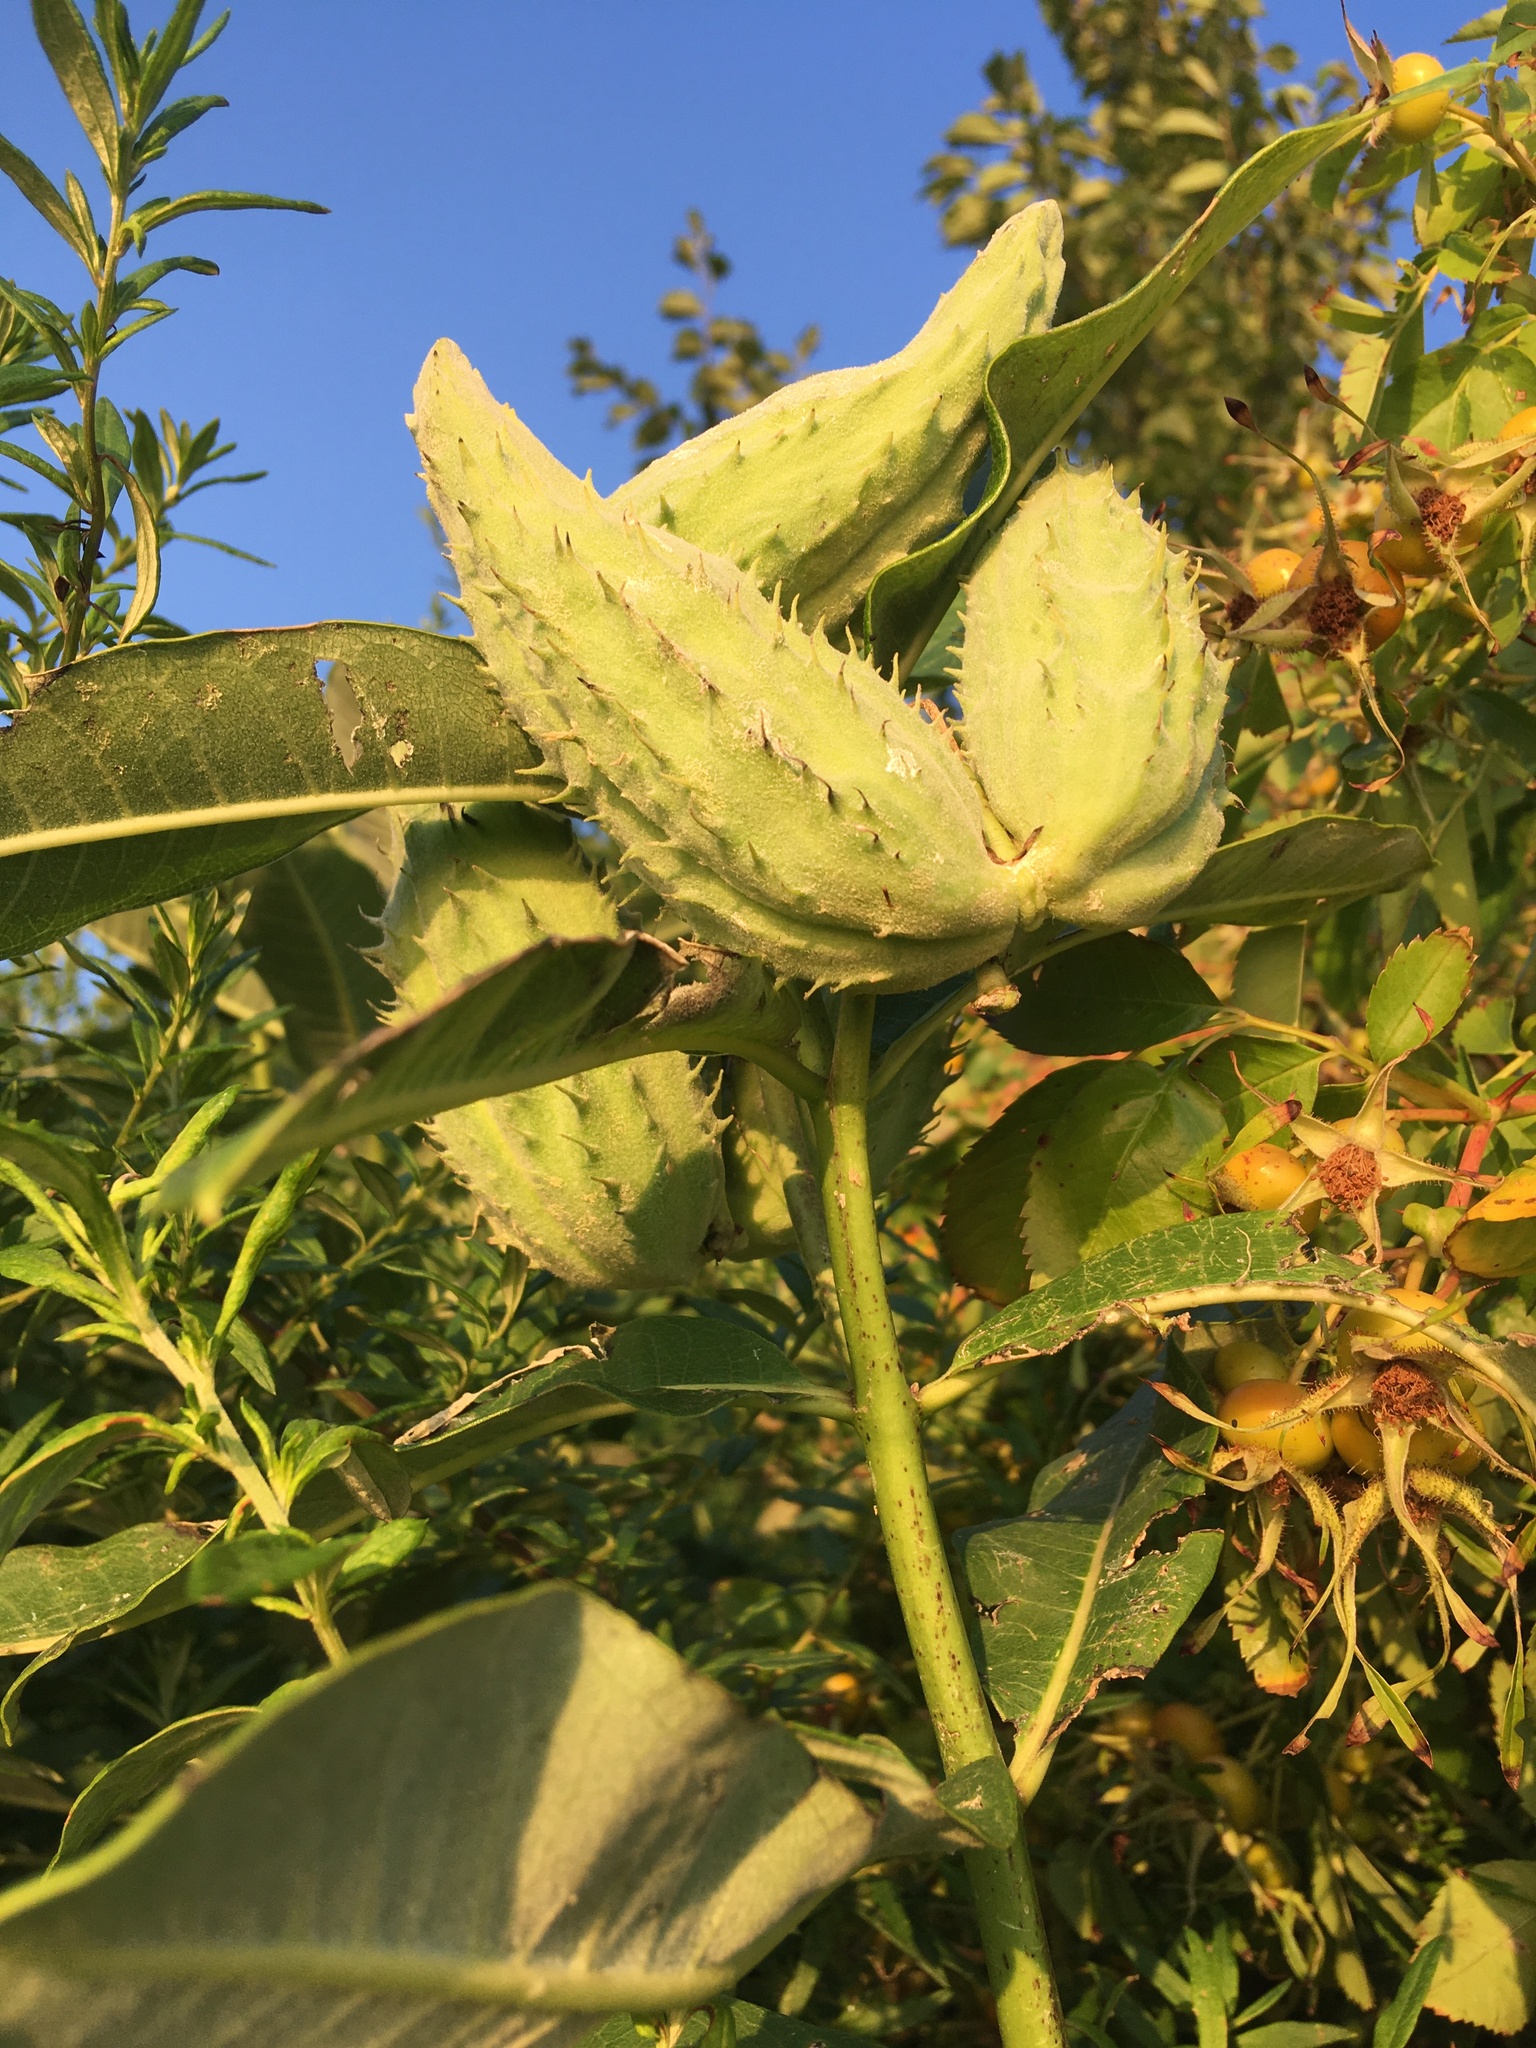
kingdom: Plantae
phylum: Tracheophyta
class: Magnoliopsida
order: Gentianales
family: Apocynaceae
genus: Asclepias
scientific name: Asclepias syriaca
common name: Common milkweed
